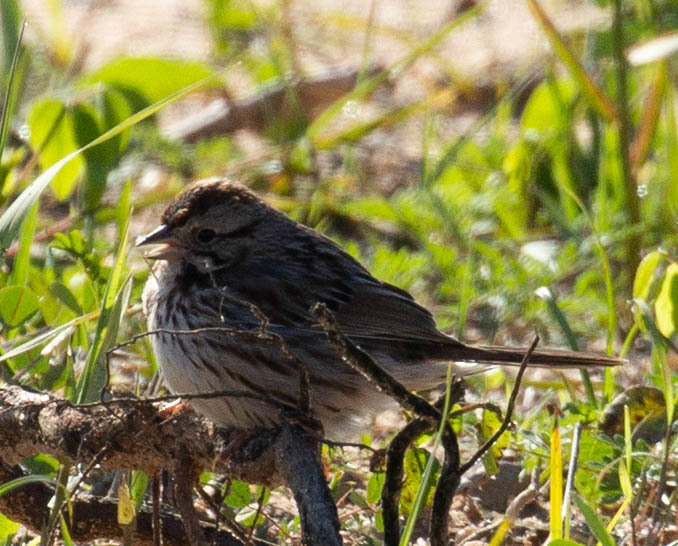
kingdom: Animalia
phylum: Chordata
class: Aves
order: Passeriformes
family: Passerellidae
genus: Melospiza
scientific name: Melospiza melodia
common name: Song sparrow
